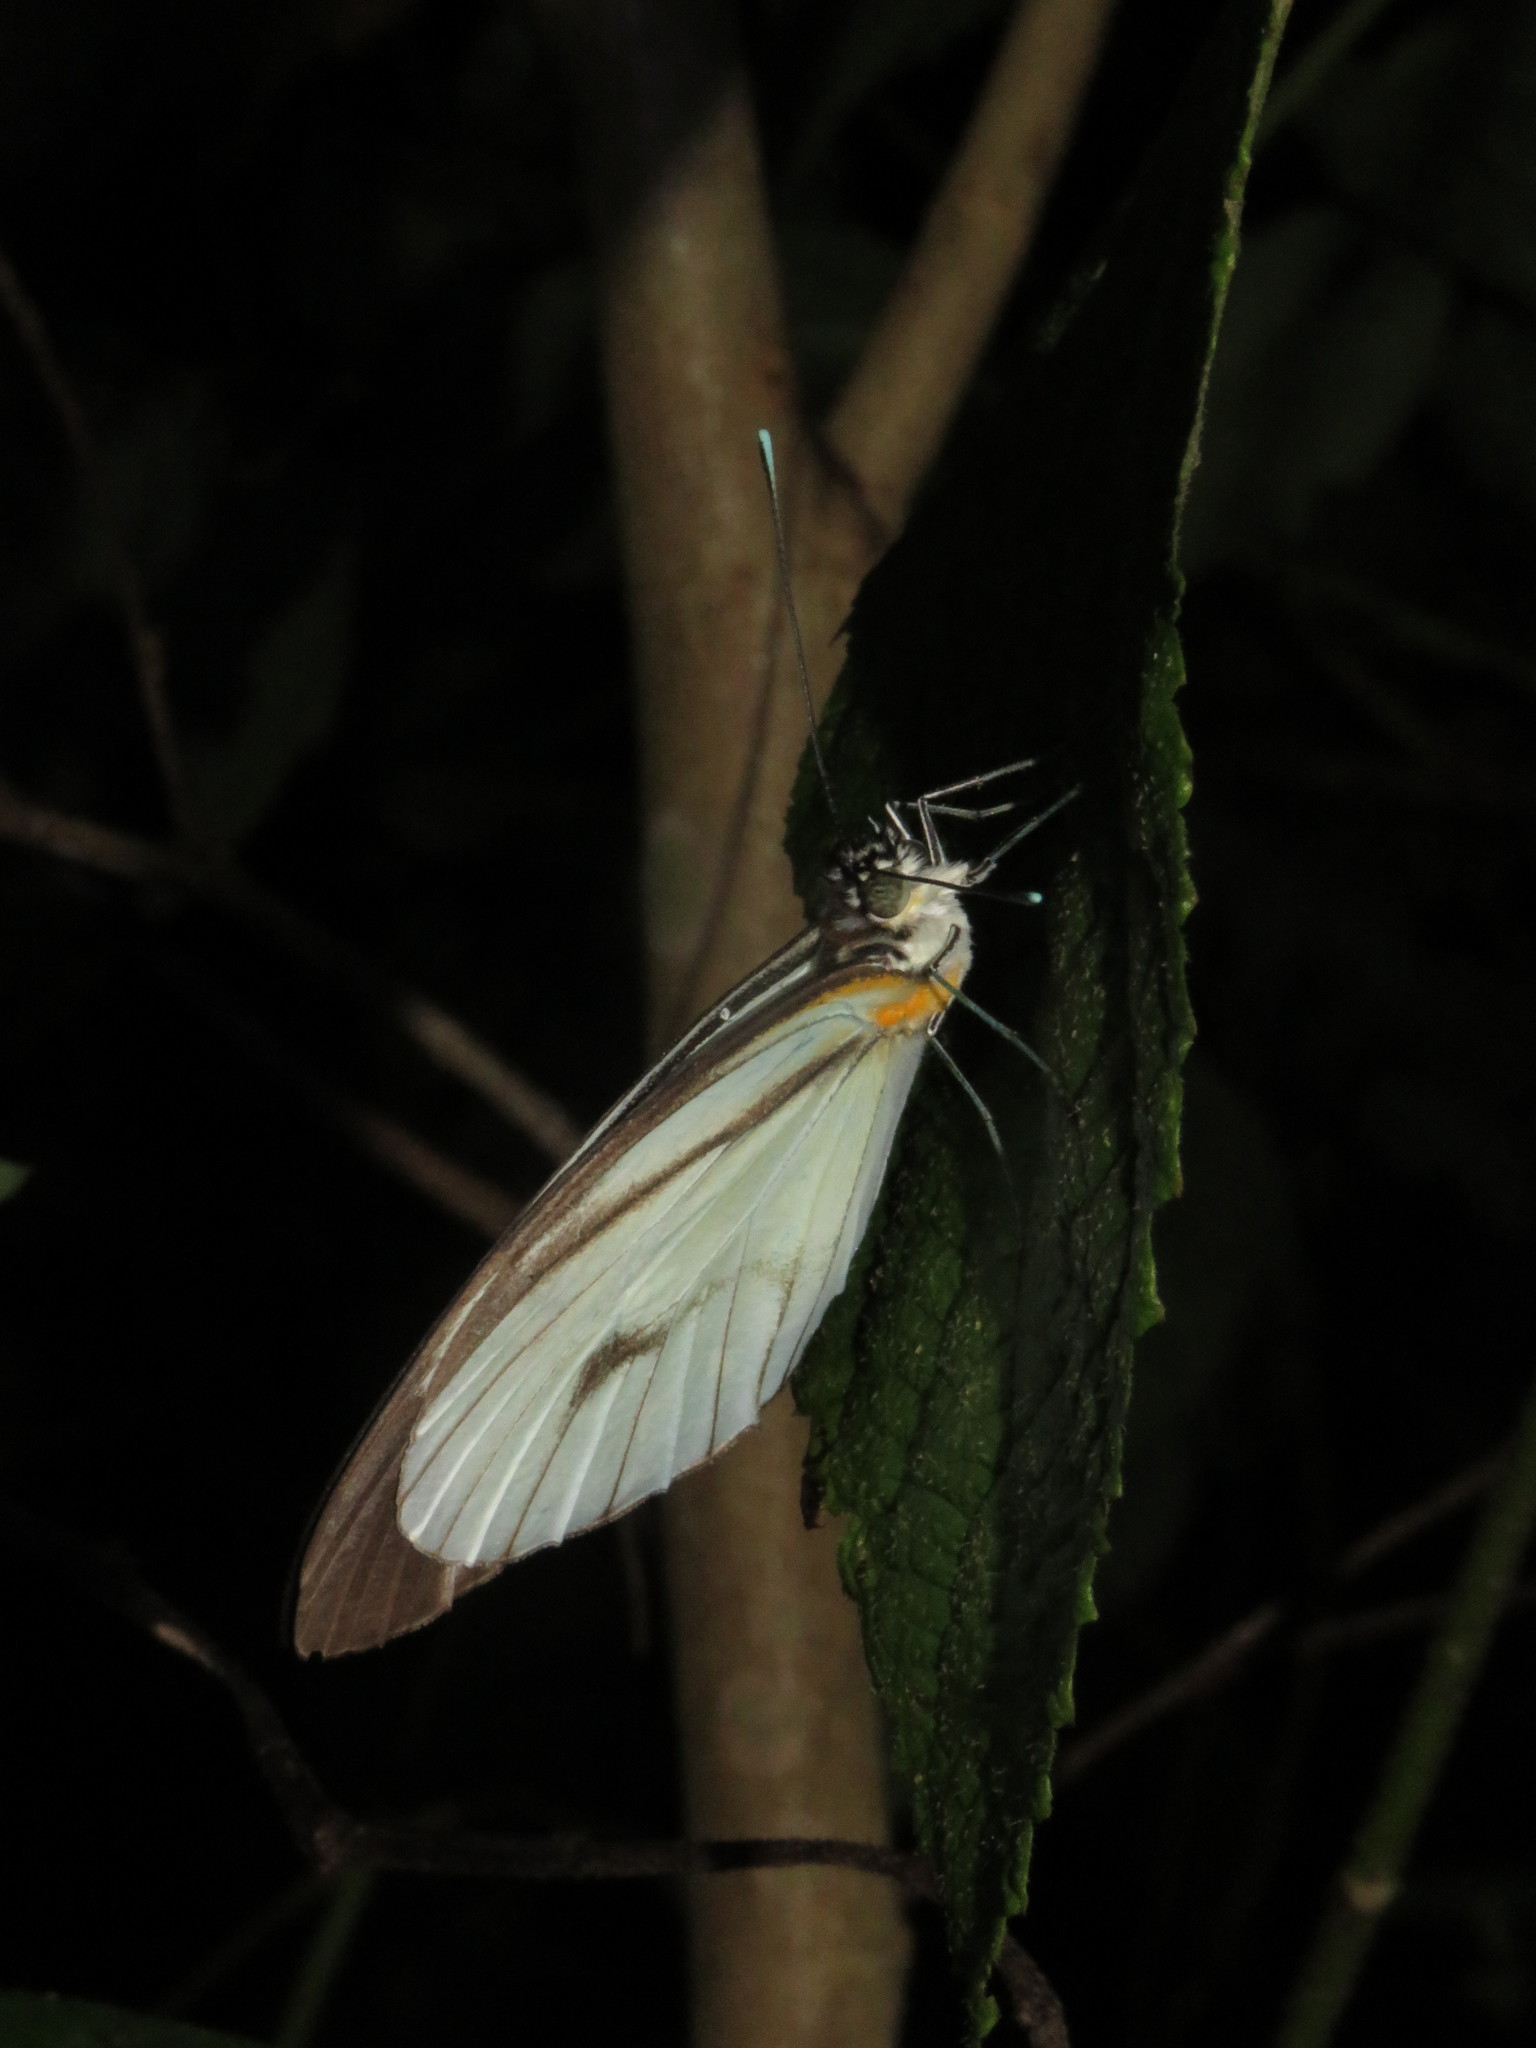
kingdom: Animalia
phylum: Arthropoda
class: Insecta
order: Lepidoptera
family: Pieridae
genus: Ganyra
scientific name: Ganyra phaloe
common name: Giant white
